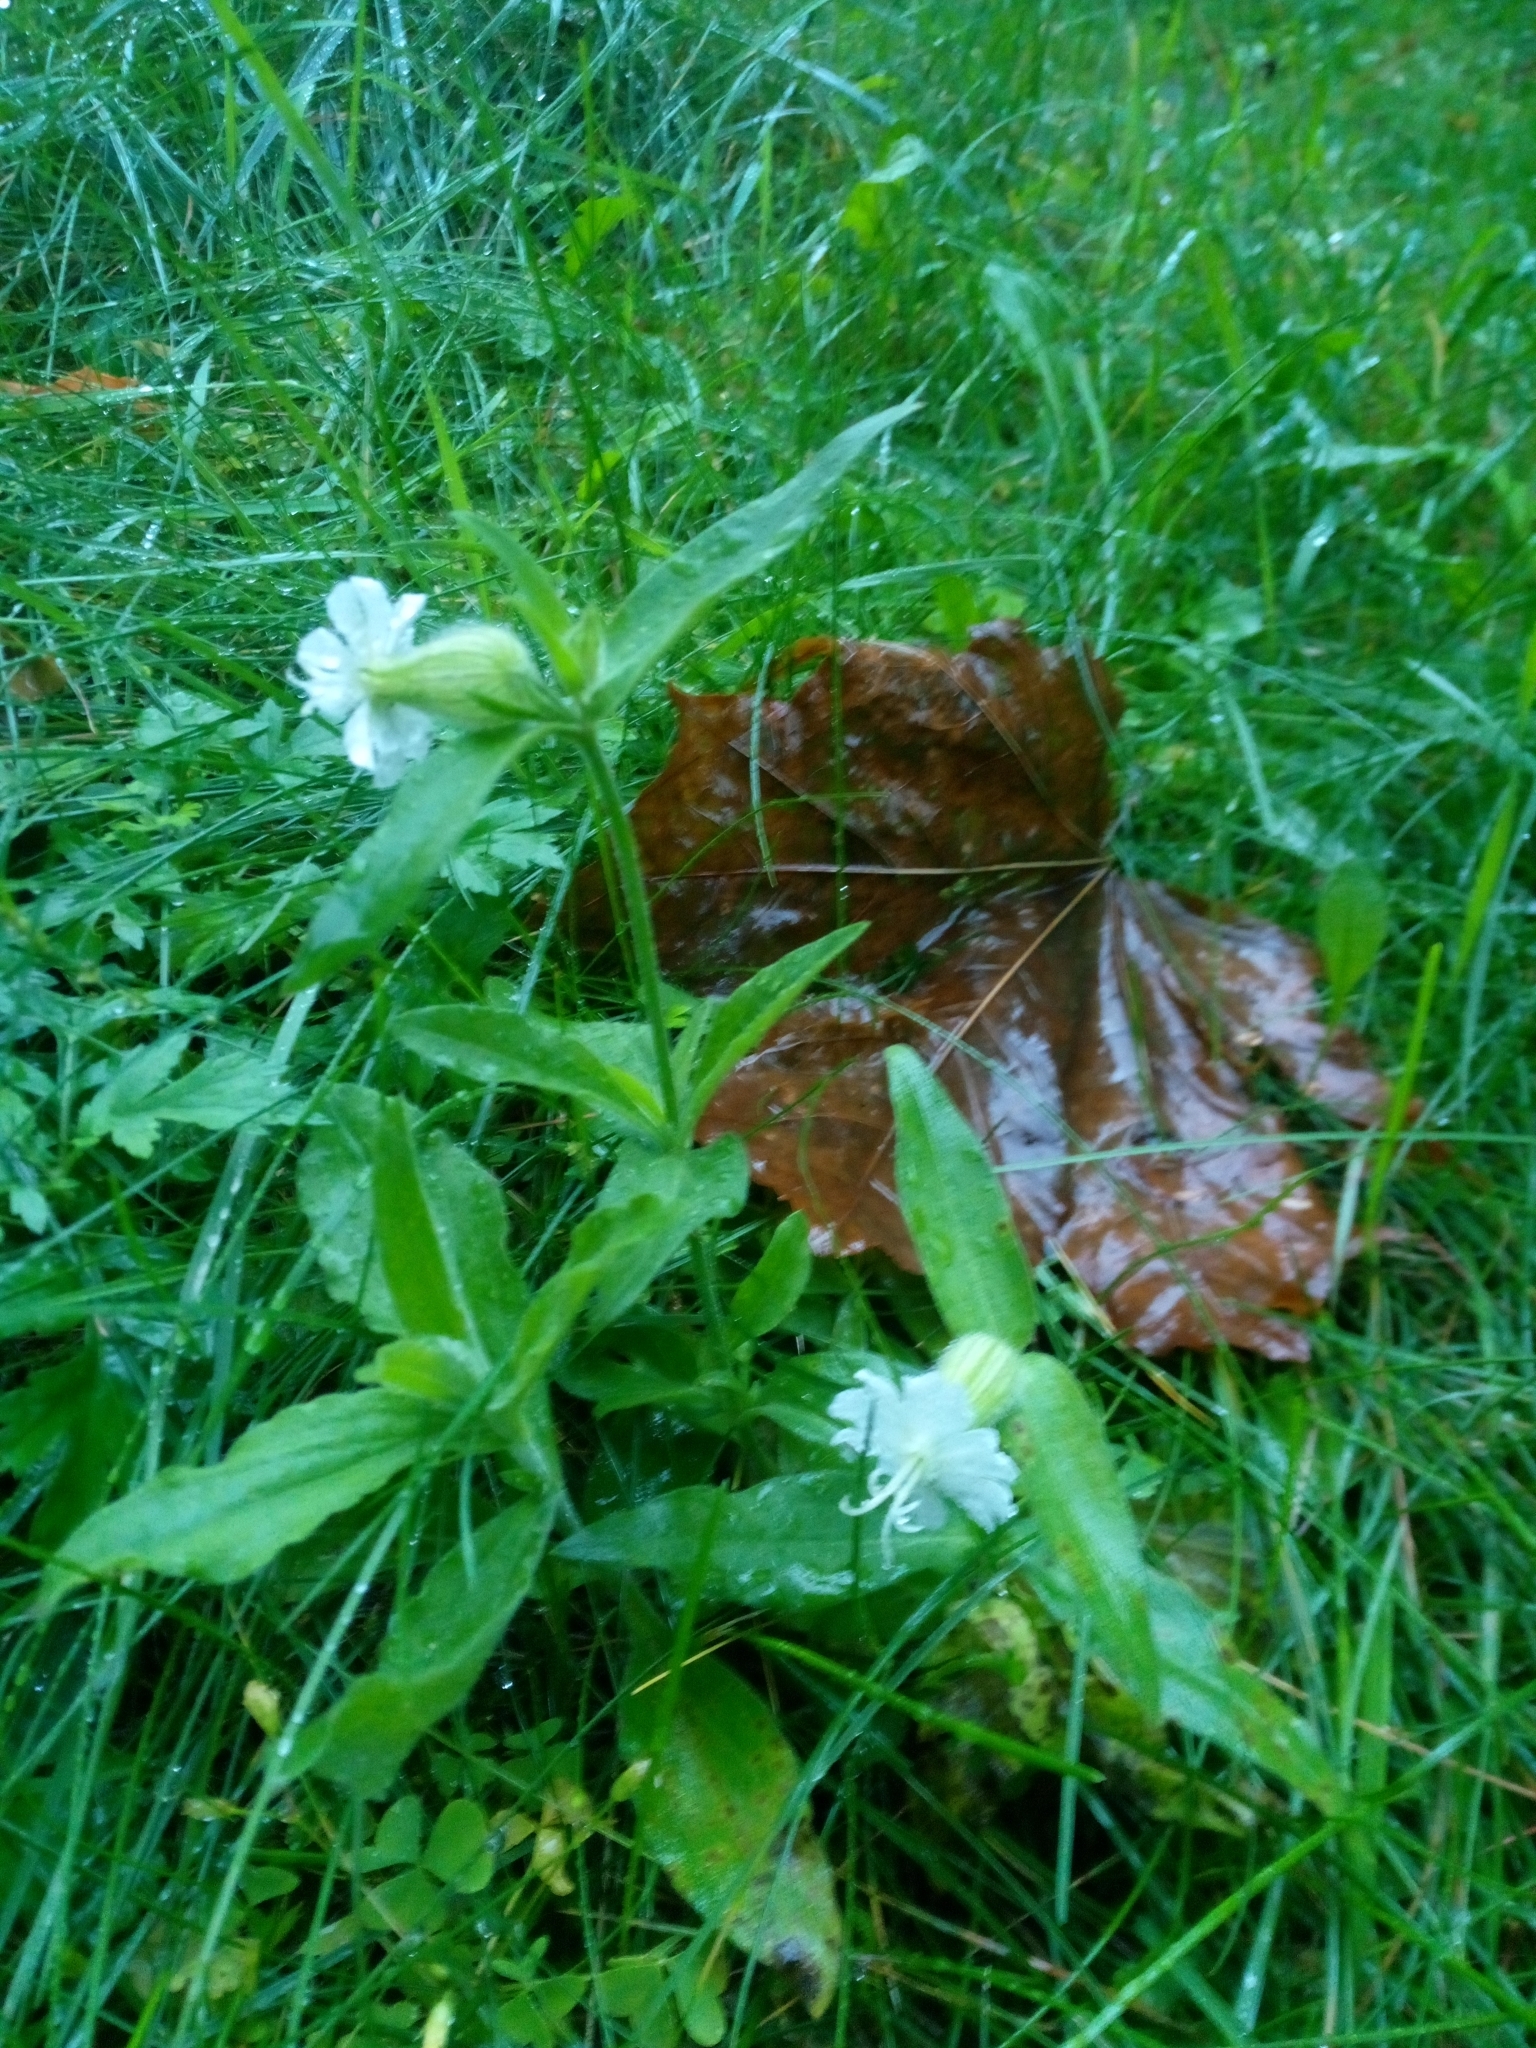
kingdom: Plantae
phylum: Tracheophyta
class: Magnoliopsida
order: Caryophyllales
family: Caryophyllaceae
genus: Silene
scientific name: Silene latifolia
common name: White campion
